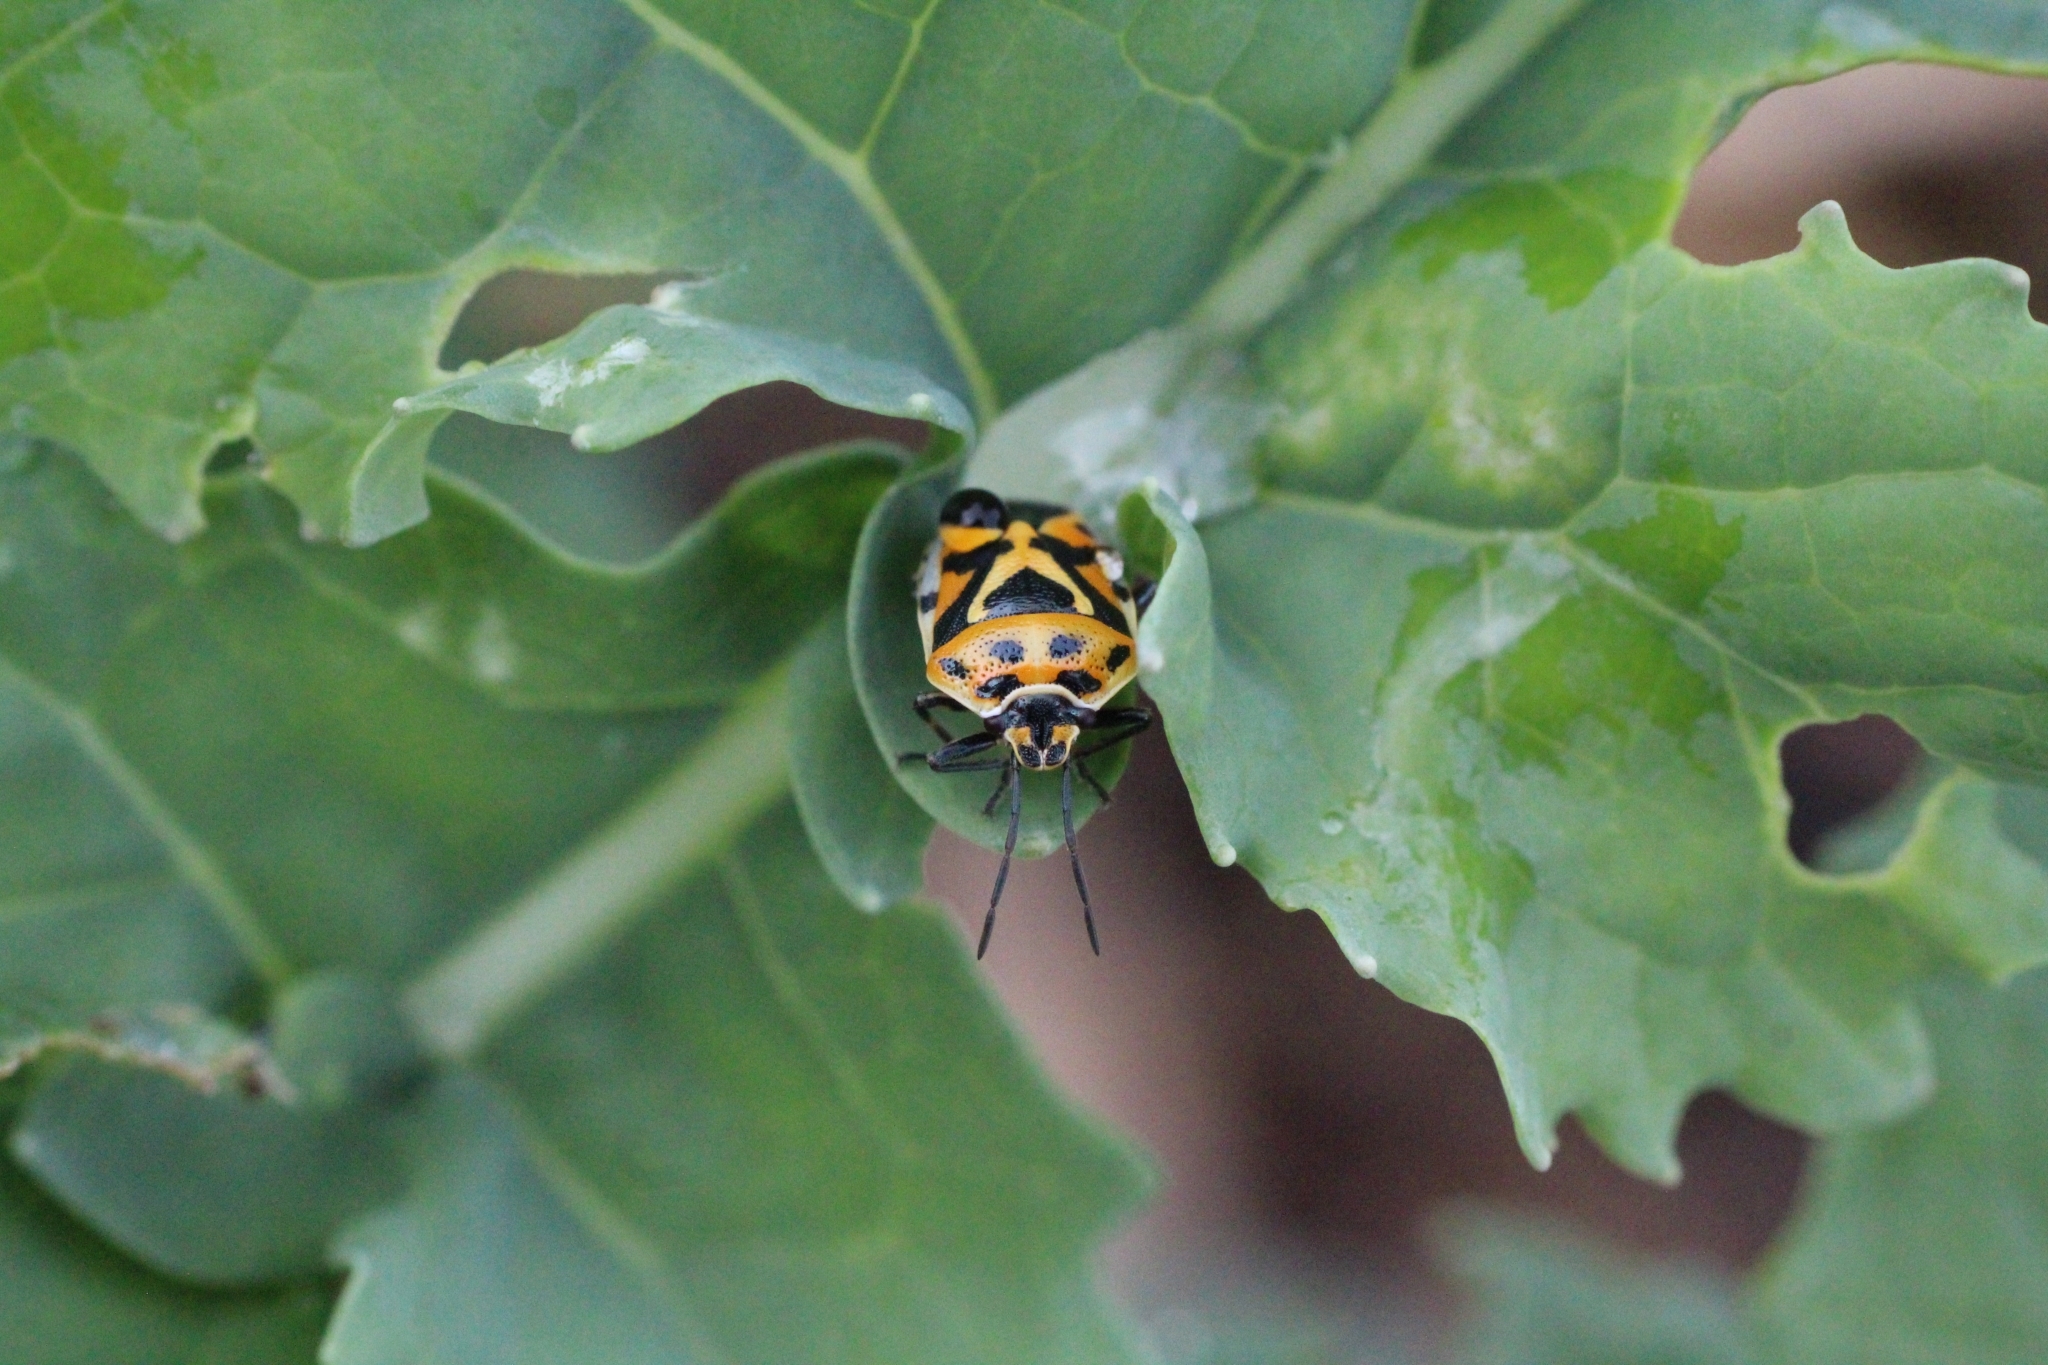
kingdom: Animalia
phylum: Arthropoda
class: Insecta
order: Hemiptera
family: Pentatomidae
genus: Eurydema
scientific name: Eurydema ornata
